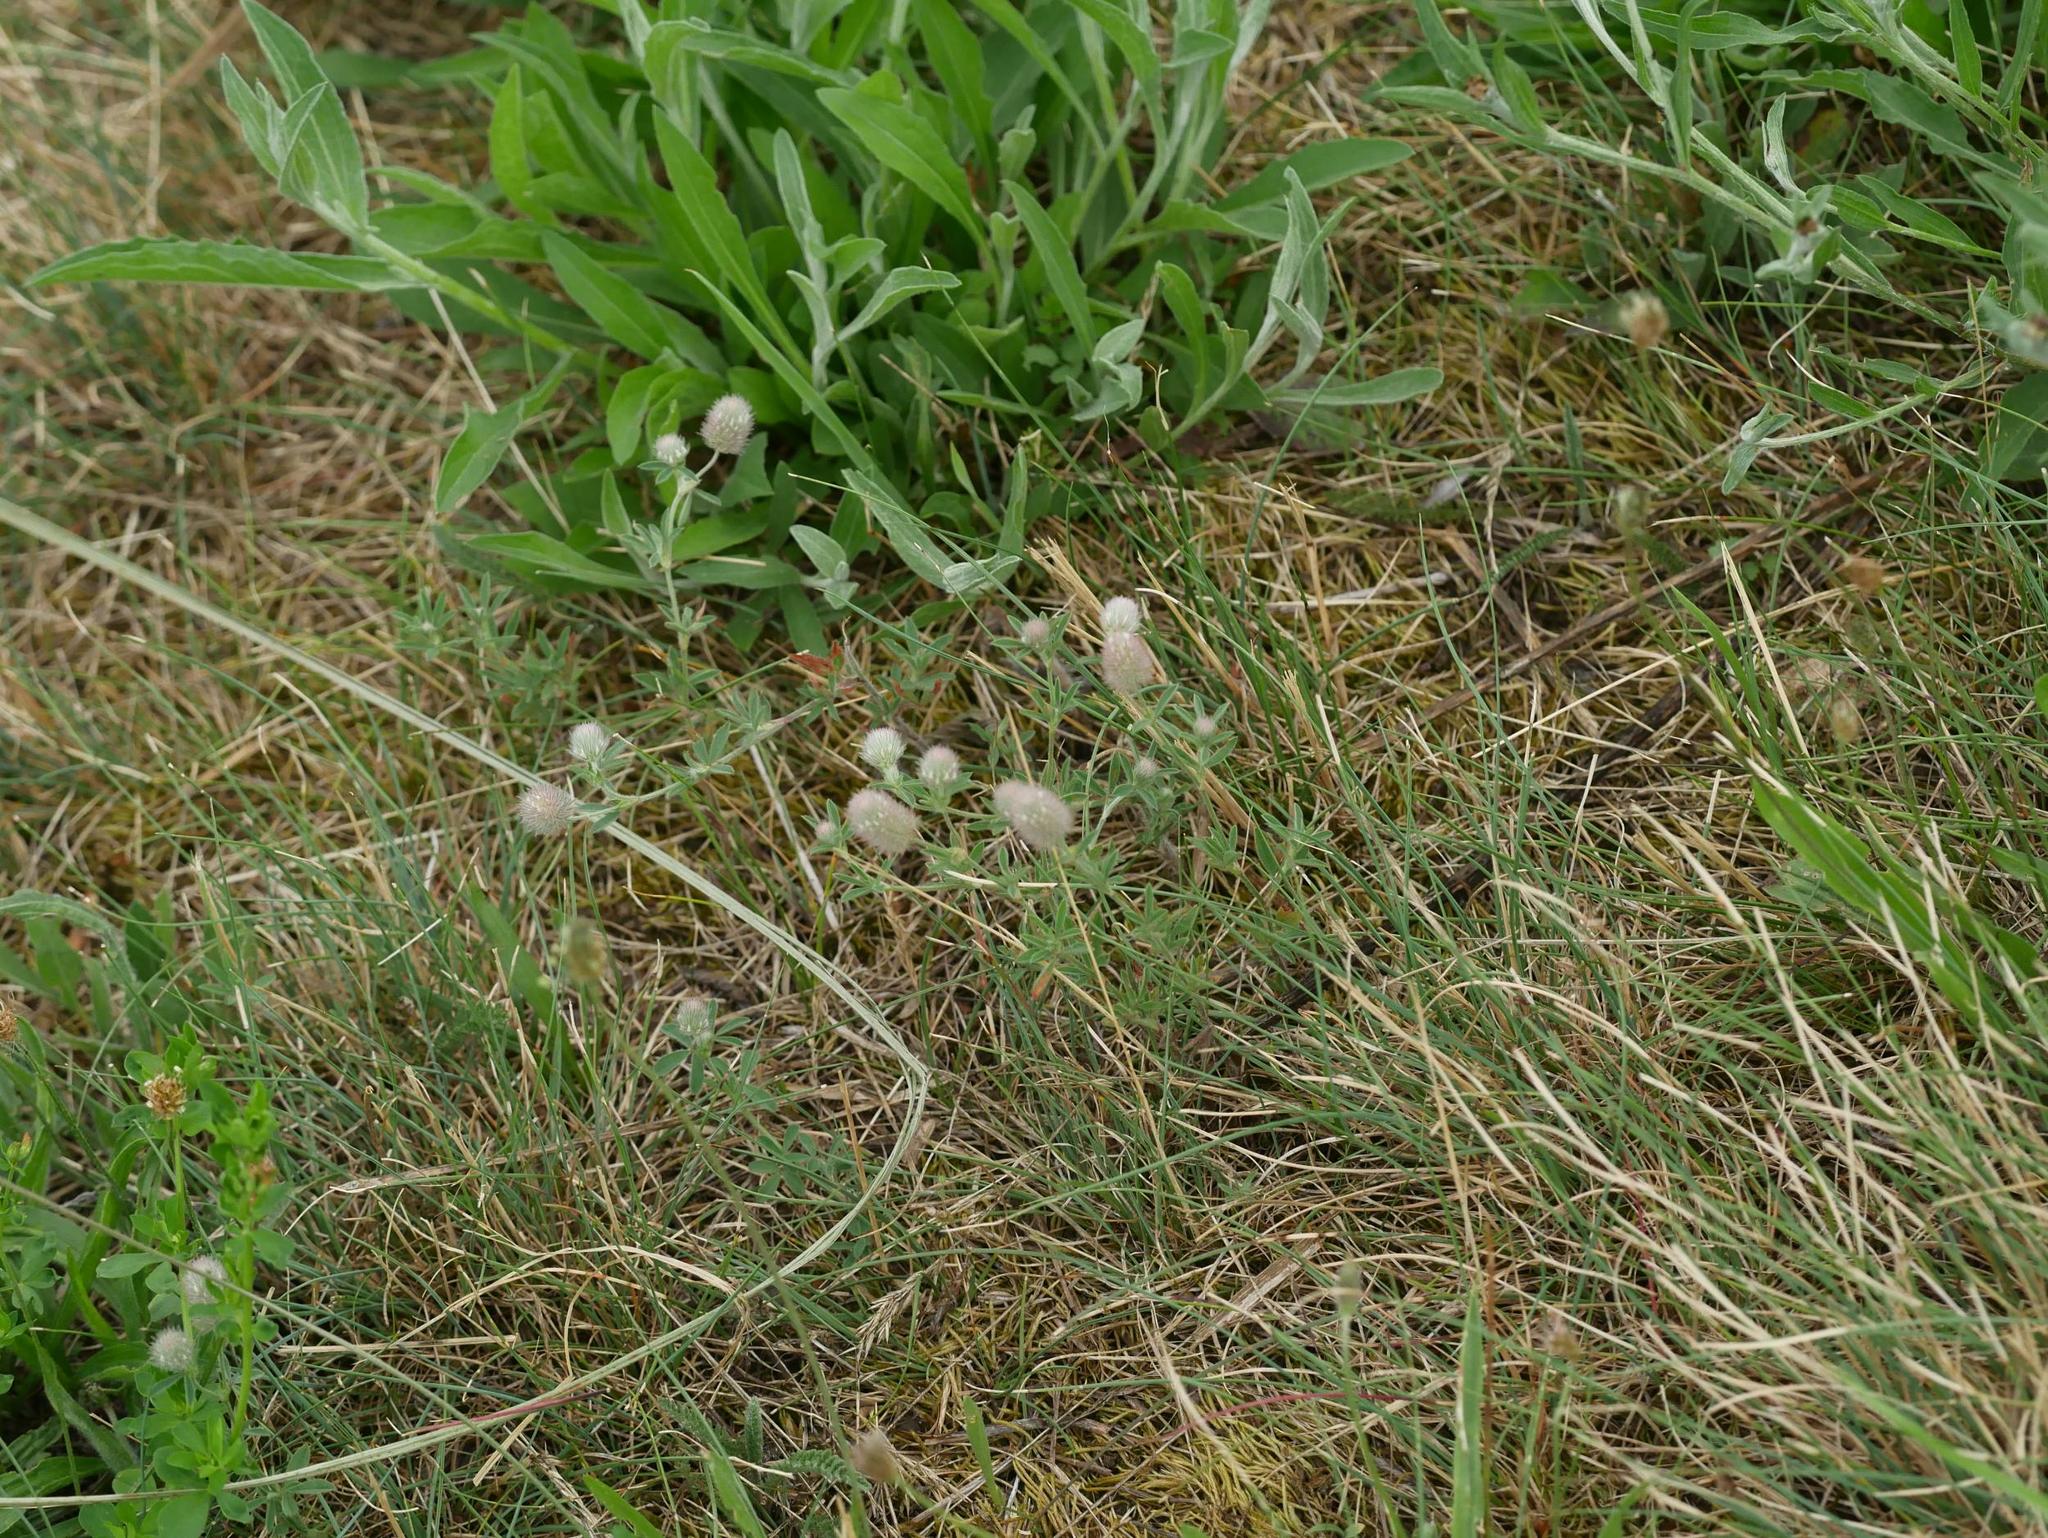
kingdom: Plantae
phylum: Tracheophyta
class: Magnoliopsida
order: Fabales
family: Fabaceae
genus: Trifolium
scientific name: Trifolium arvense
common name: Hare's-foot clover
